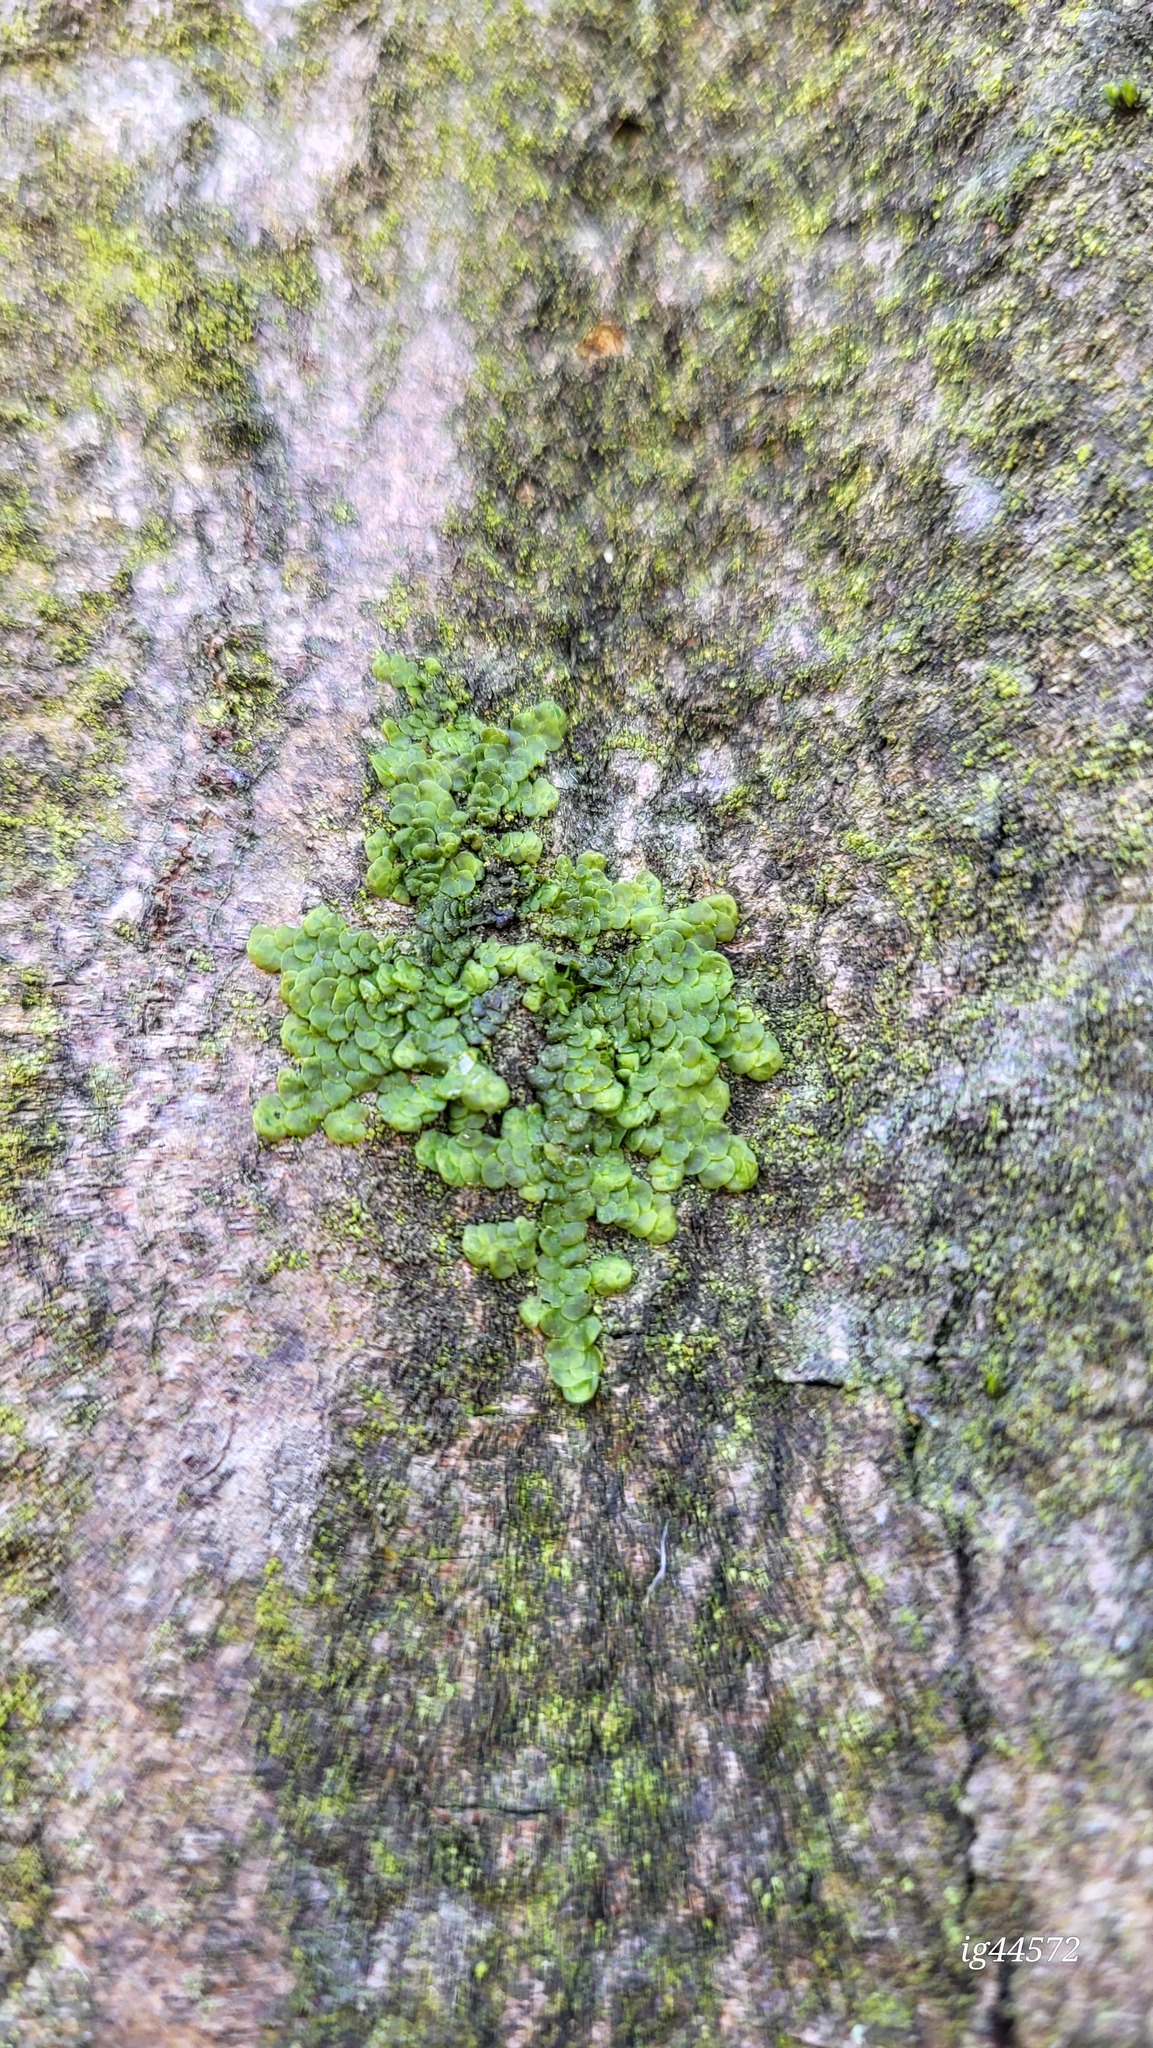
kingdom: Plantae
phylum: Marchantiophyta
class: Jungermanniopsida
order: Porellales
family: Radulaceae
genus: Radula
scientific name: Radula complanata
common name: Flat-leaved scalewort
